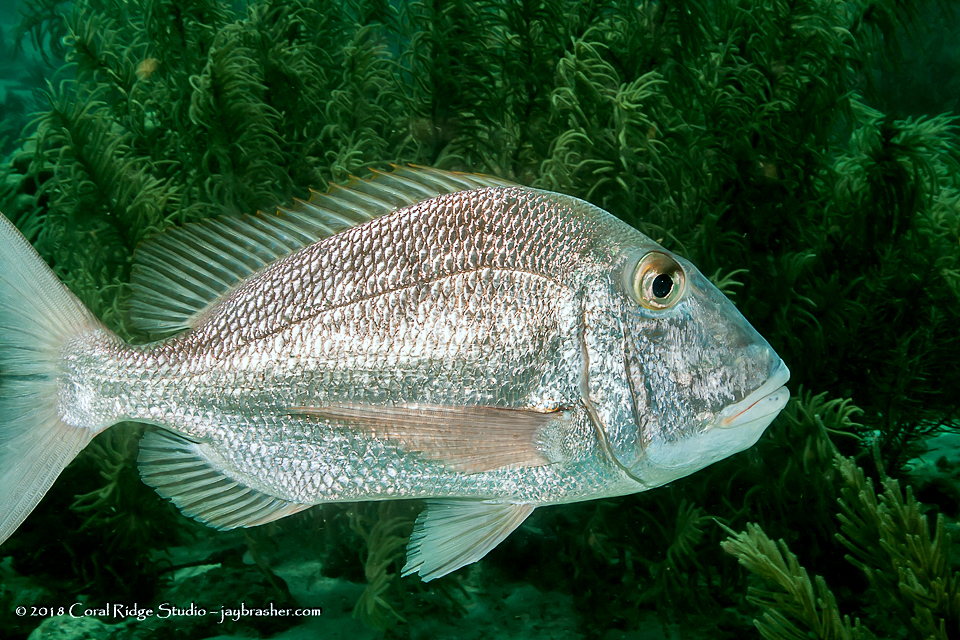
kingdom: Animalia
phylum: Chordata
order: Perciformes
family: Sparidae
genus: Calamus
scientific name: Calamus bajonado
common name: Jolthead porgy
